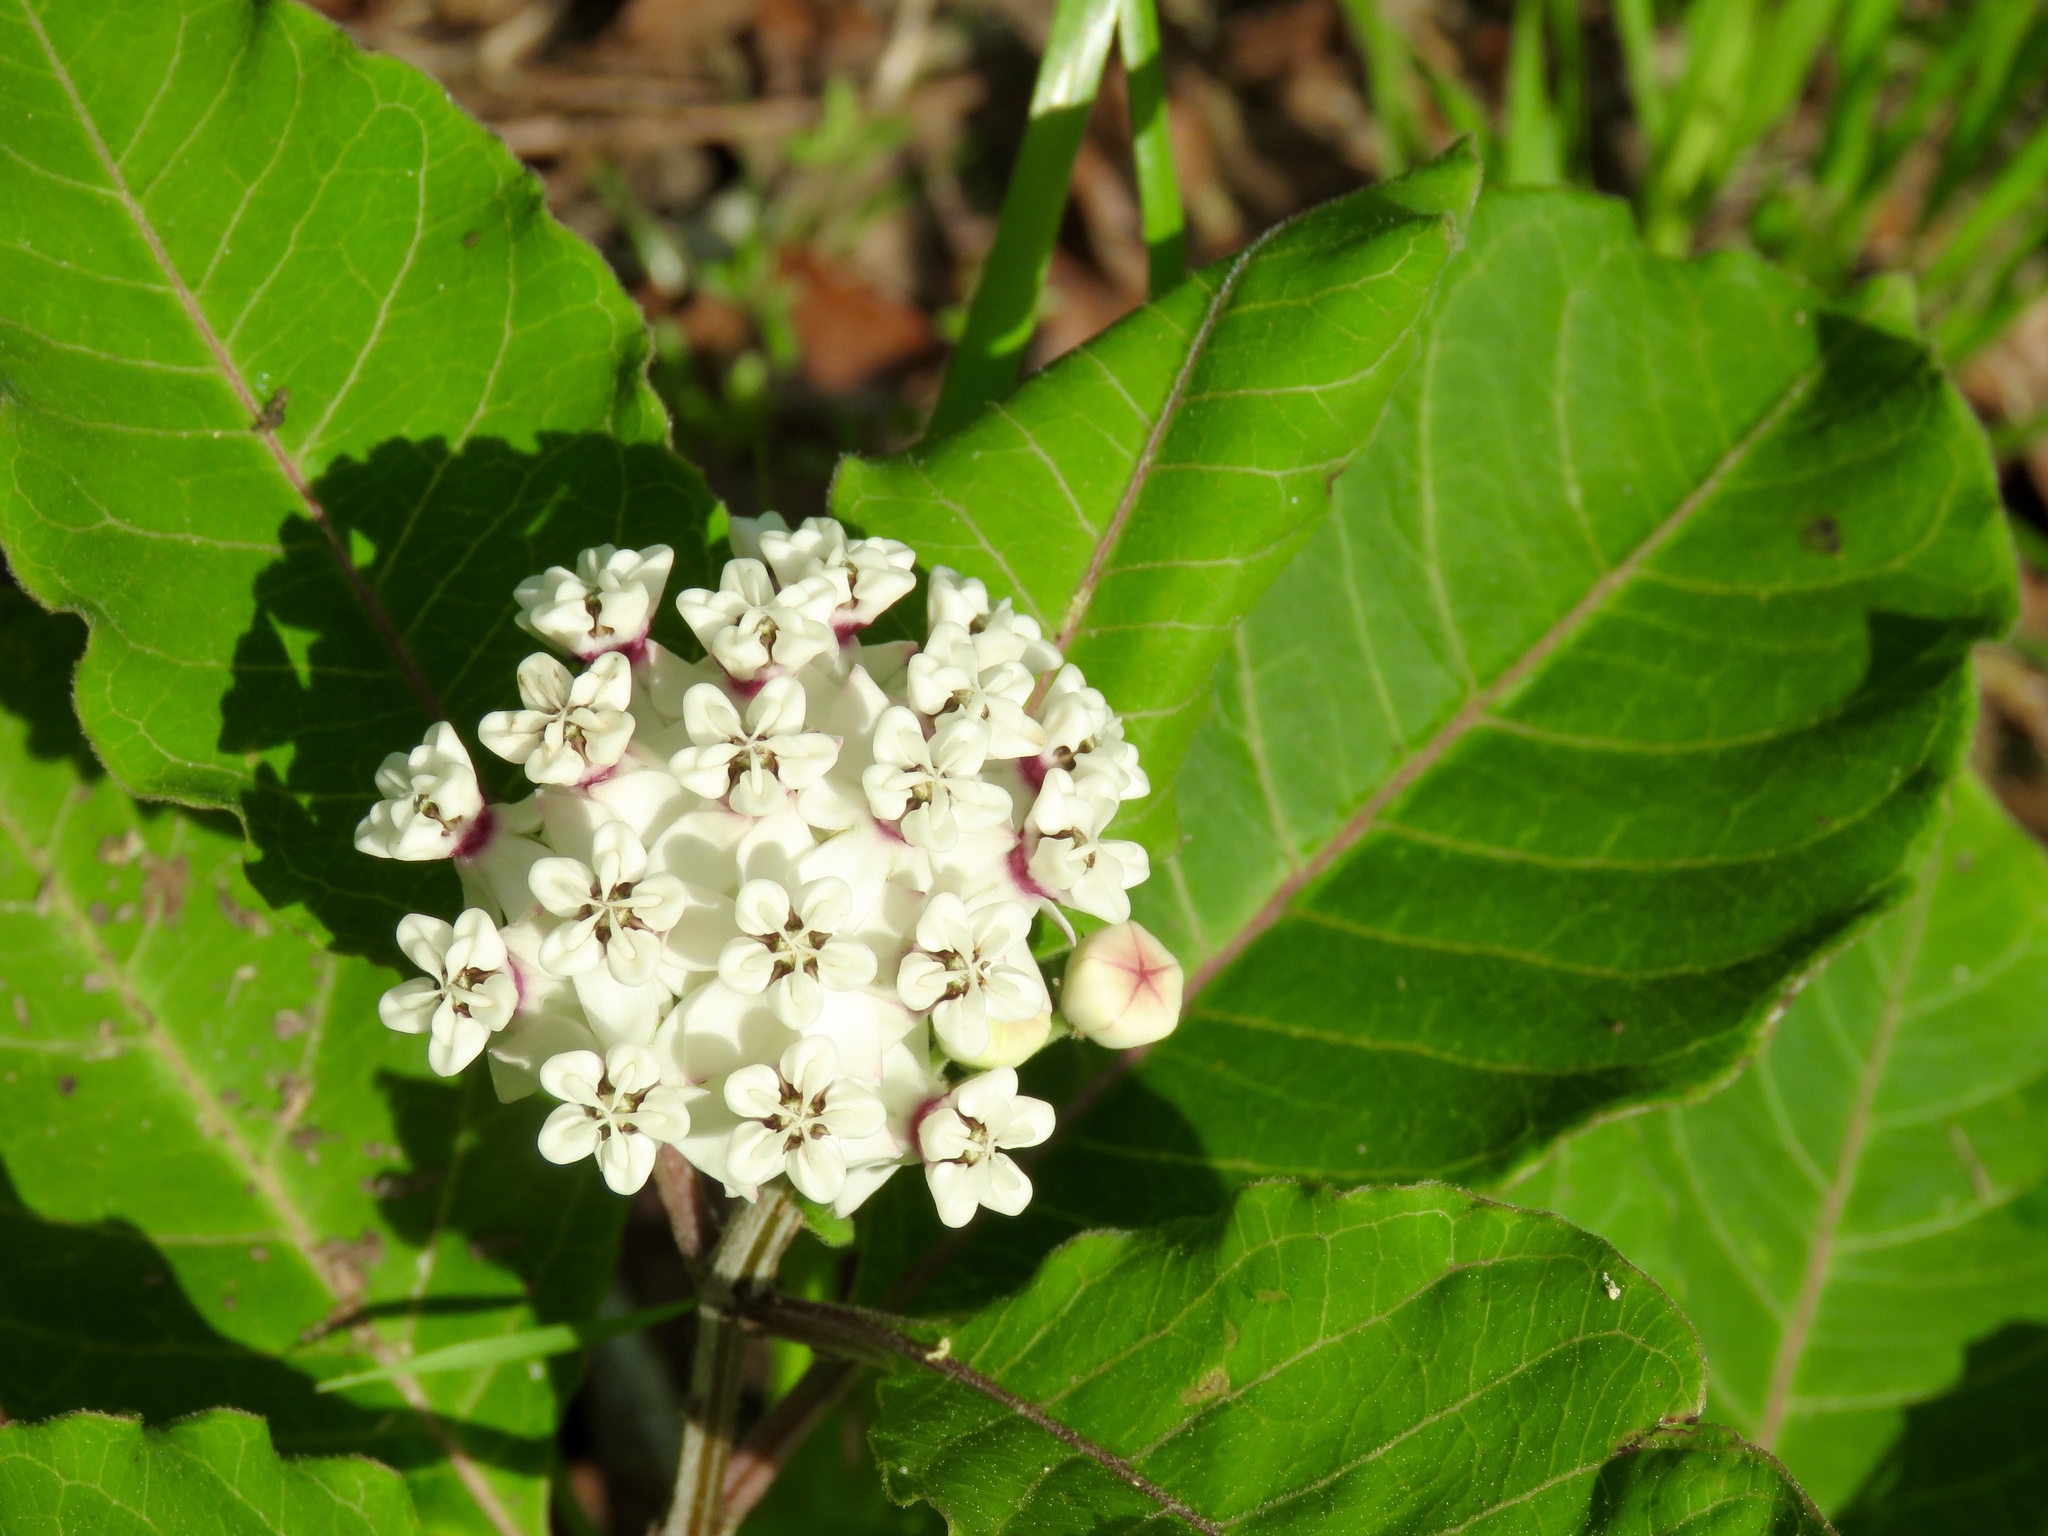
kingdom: Plantae
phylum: Tracheophyta
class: Magnoliopsida
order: Gentianales
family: Apocynaceae
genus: Asclepias
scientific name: Asclepias variegata
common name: Variegated milkweed
